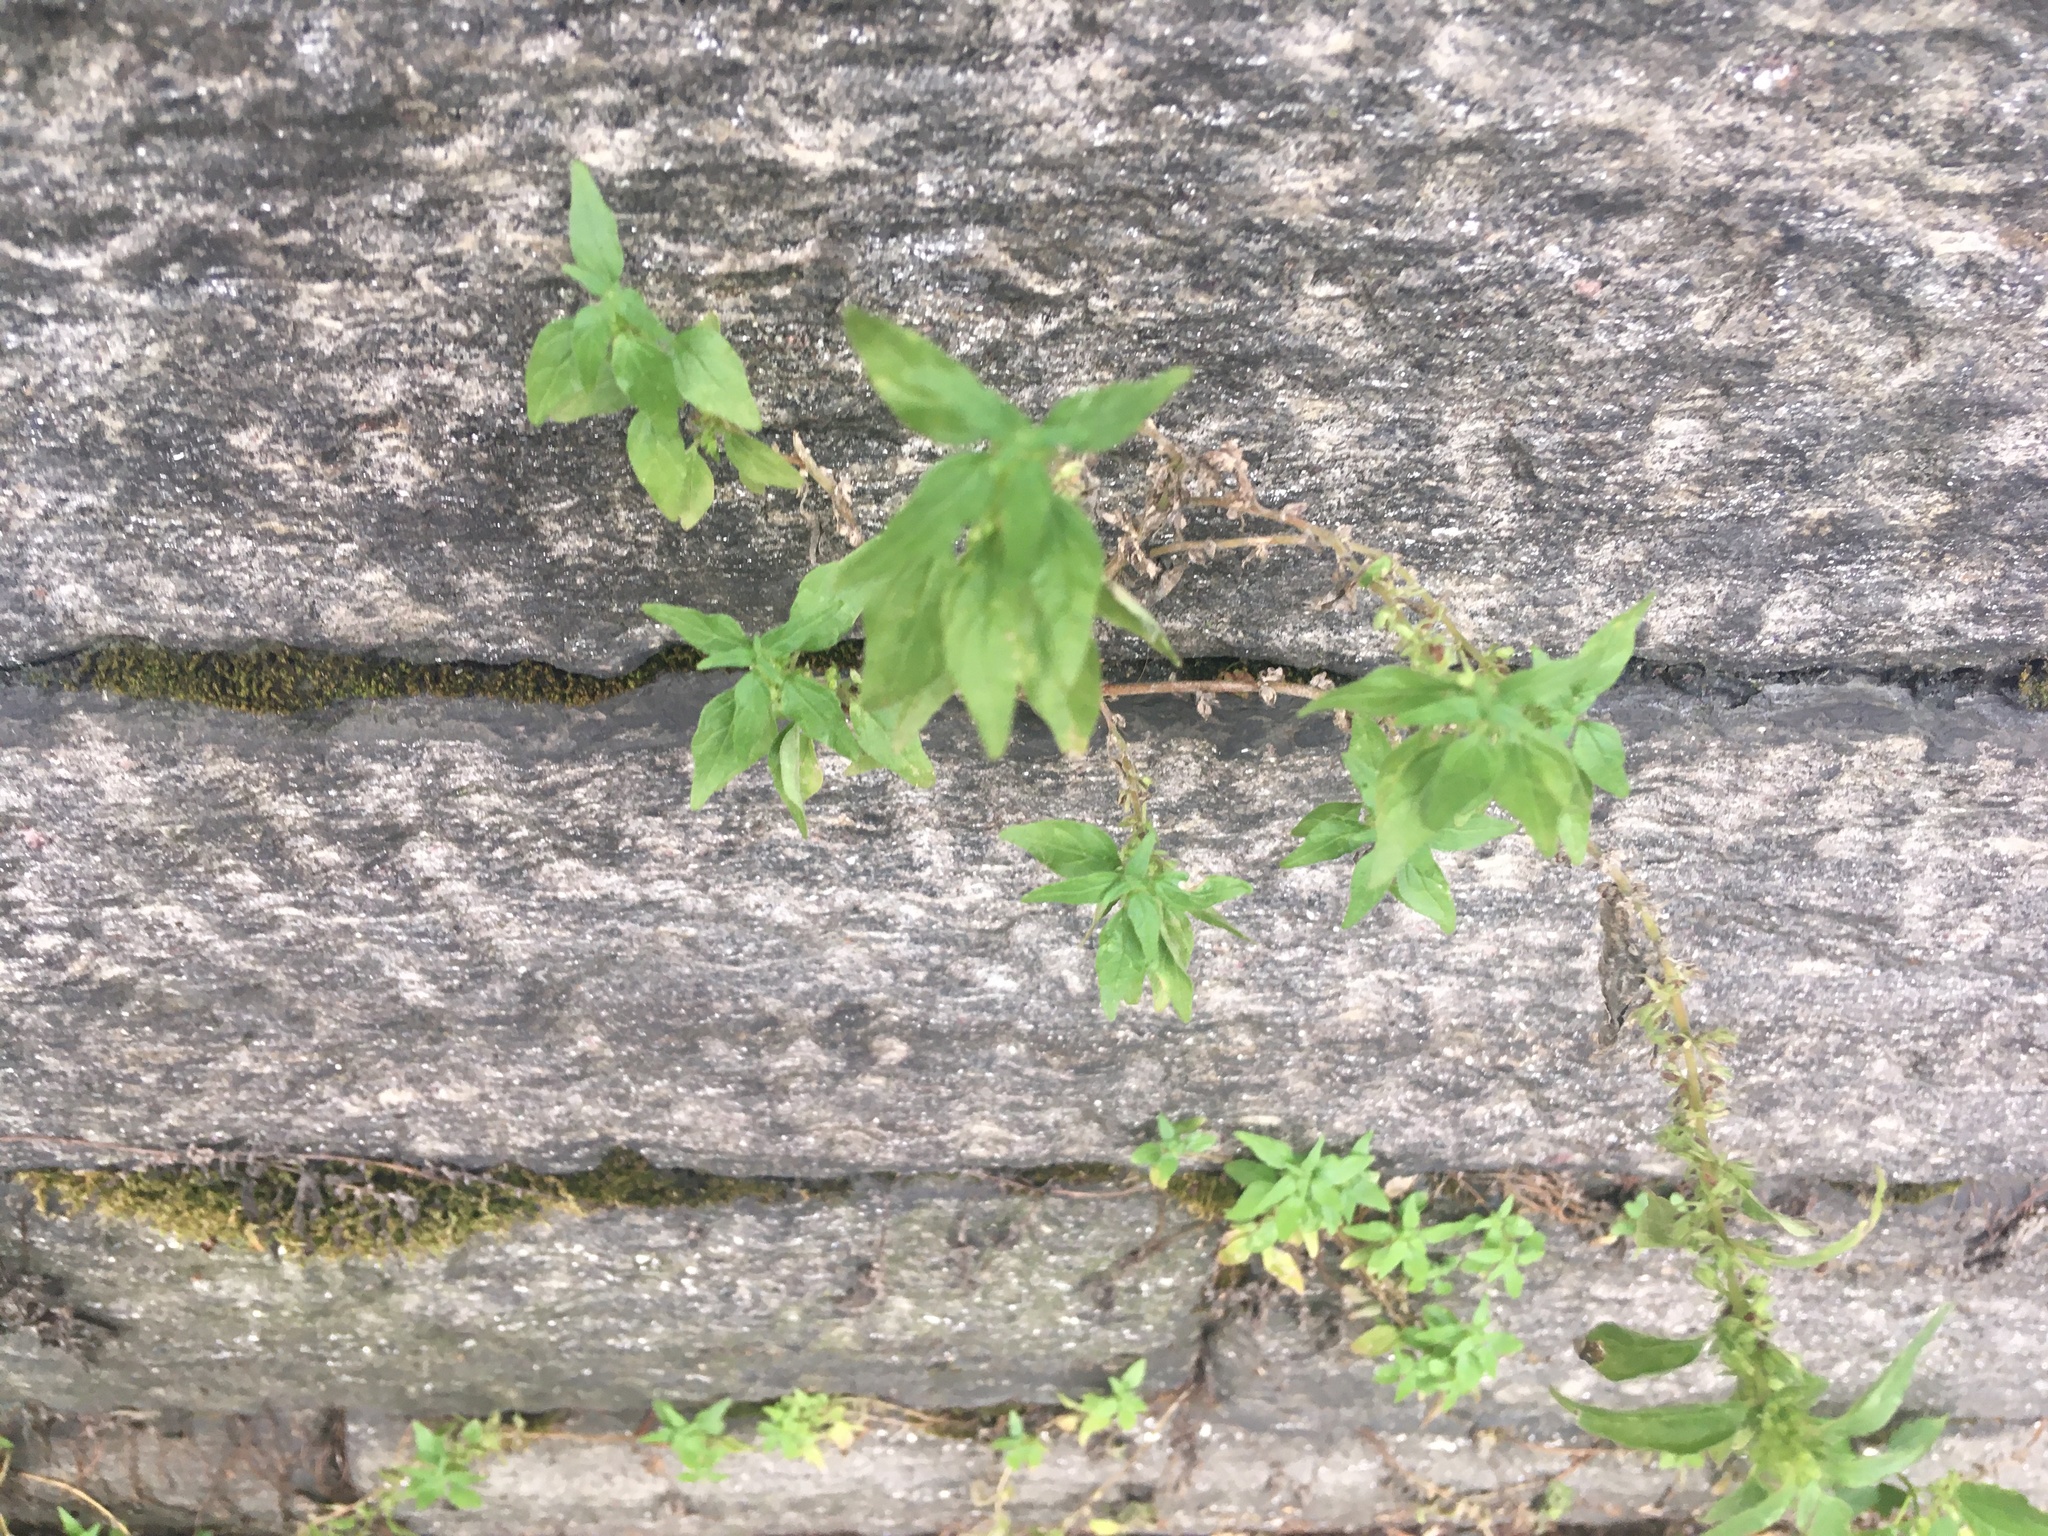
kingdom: Plantae
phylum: Tracheophyta
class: Magnoliopsida
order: Rosales
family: Urticaceae
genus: Parietaria
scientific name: Parietaria pensylvanica
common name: Pennsylvania pellitory
